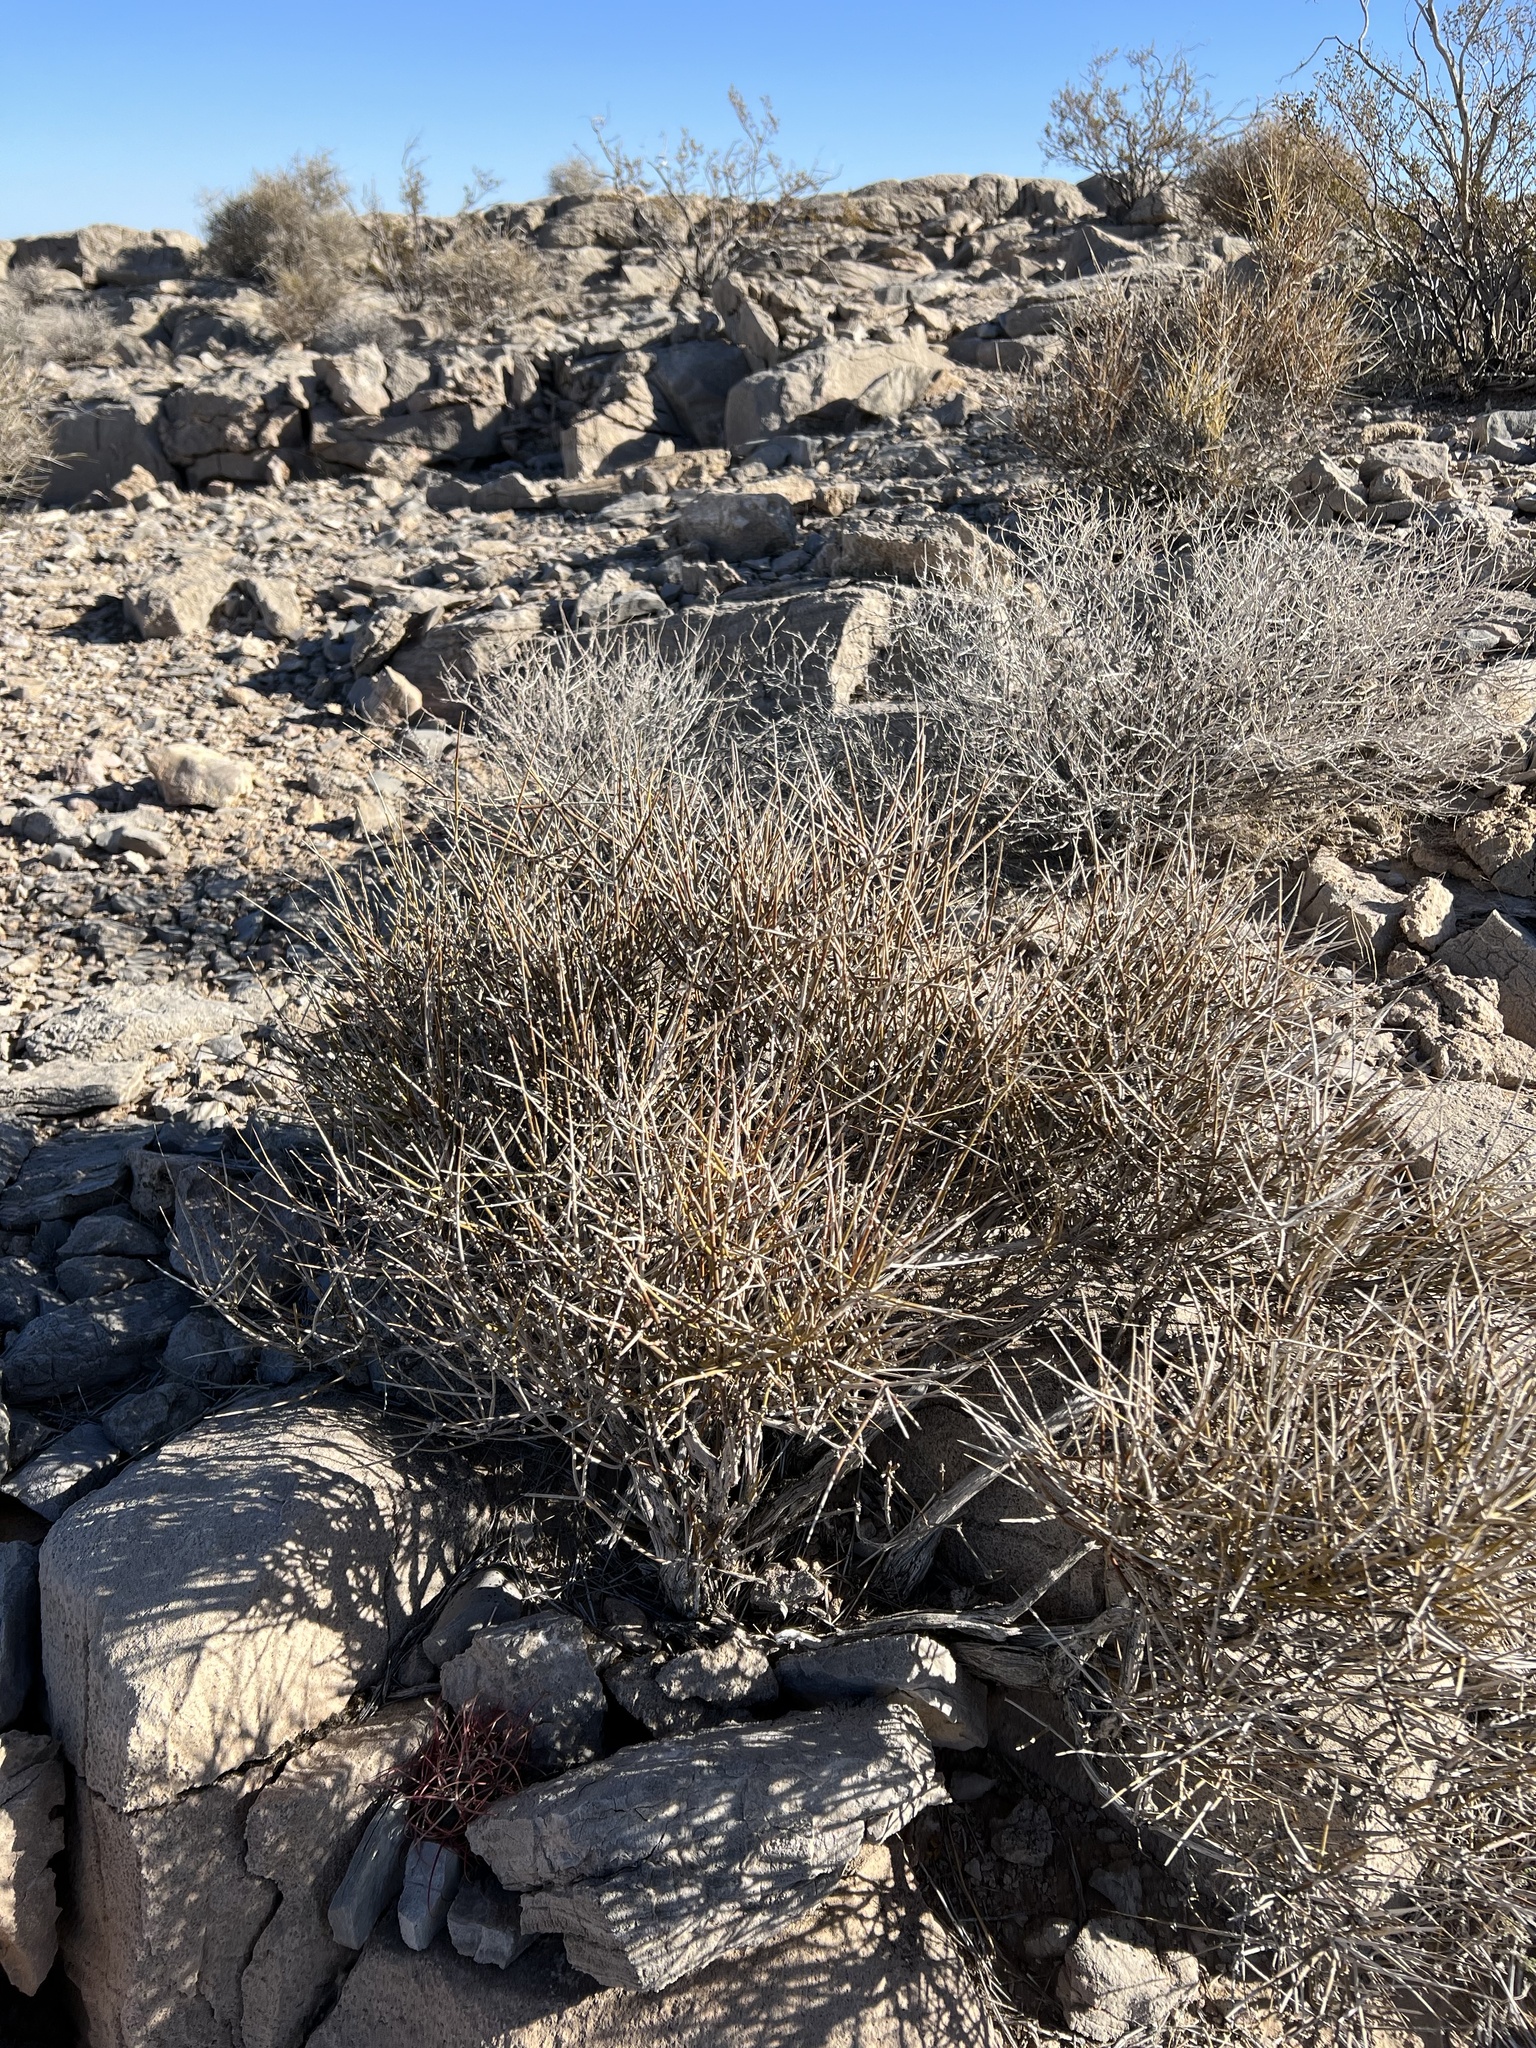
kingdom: Plantae
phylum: Tracheophyta
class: Gnetopsida
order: Ephedrales
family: Ephedraceae
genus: Ephedra
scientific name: Ephedra nevadensis
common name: Gray ephedra
